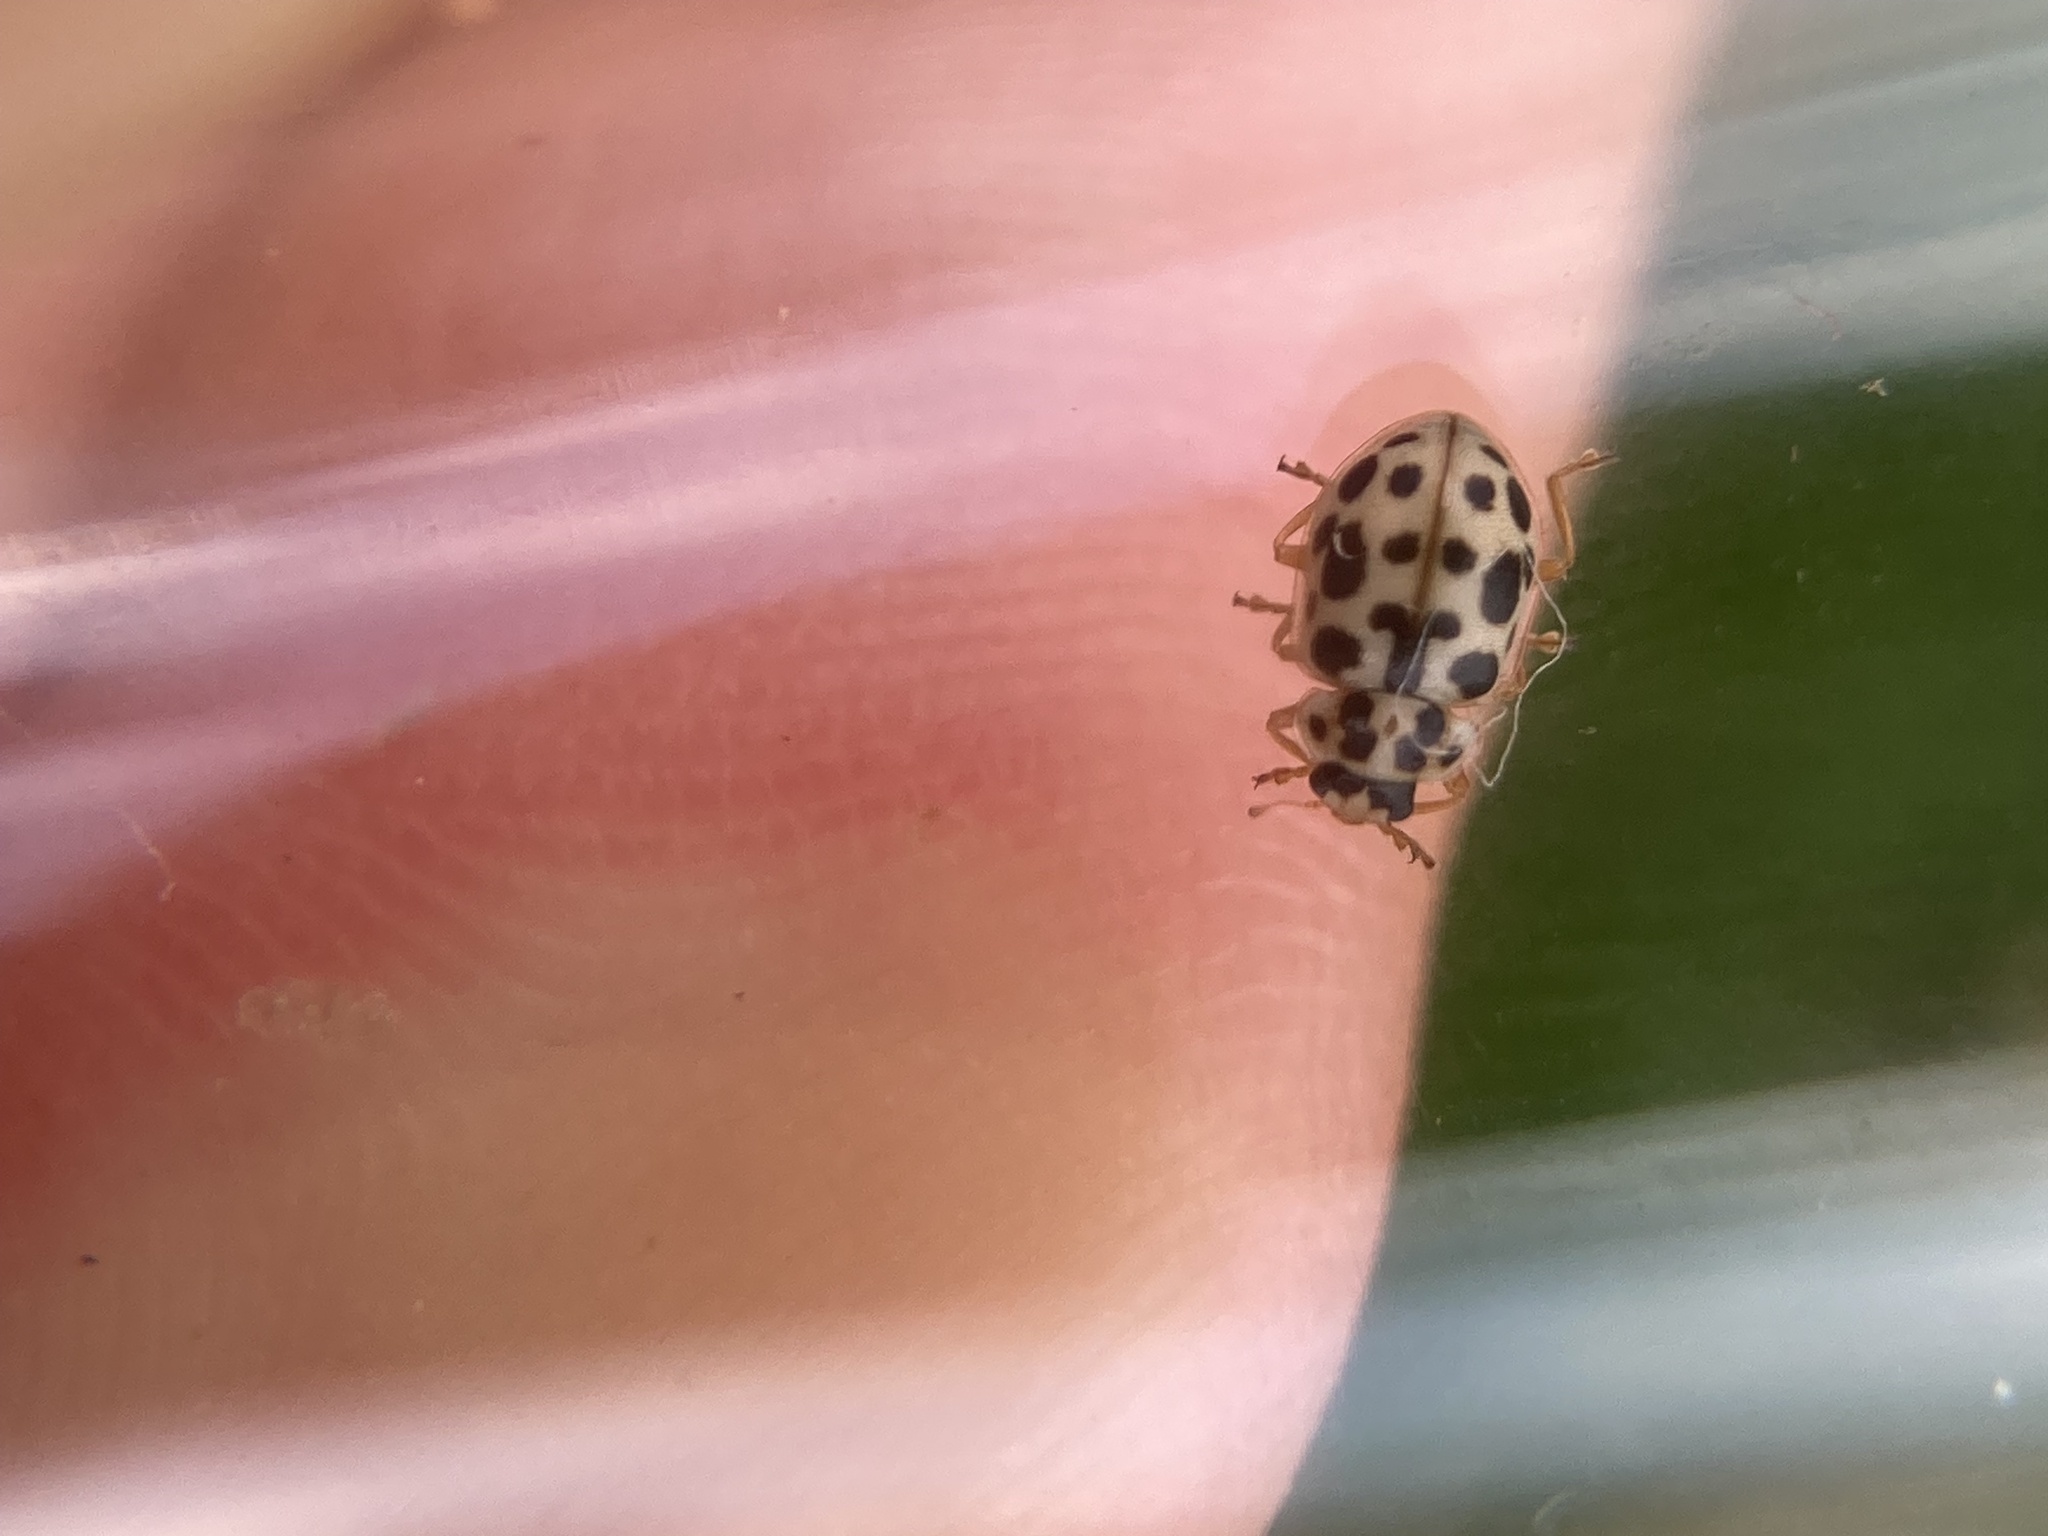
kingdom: Animalia
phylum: Arthropoda
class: Insecta
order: Coleoptera
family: Coccinellidae
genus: Anisosticta
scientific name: Anisosticta bitriangularis
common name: Marsh lady beetle
